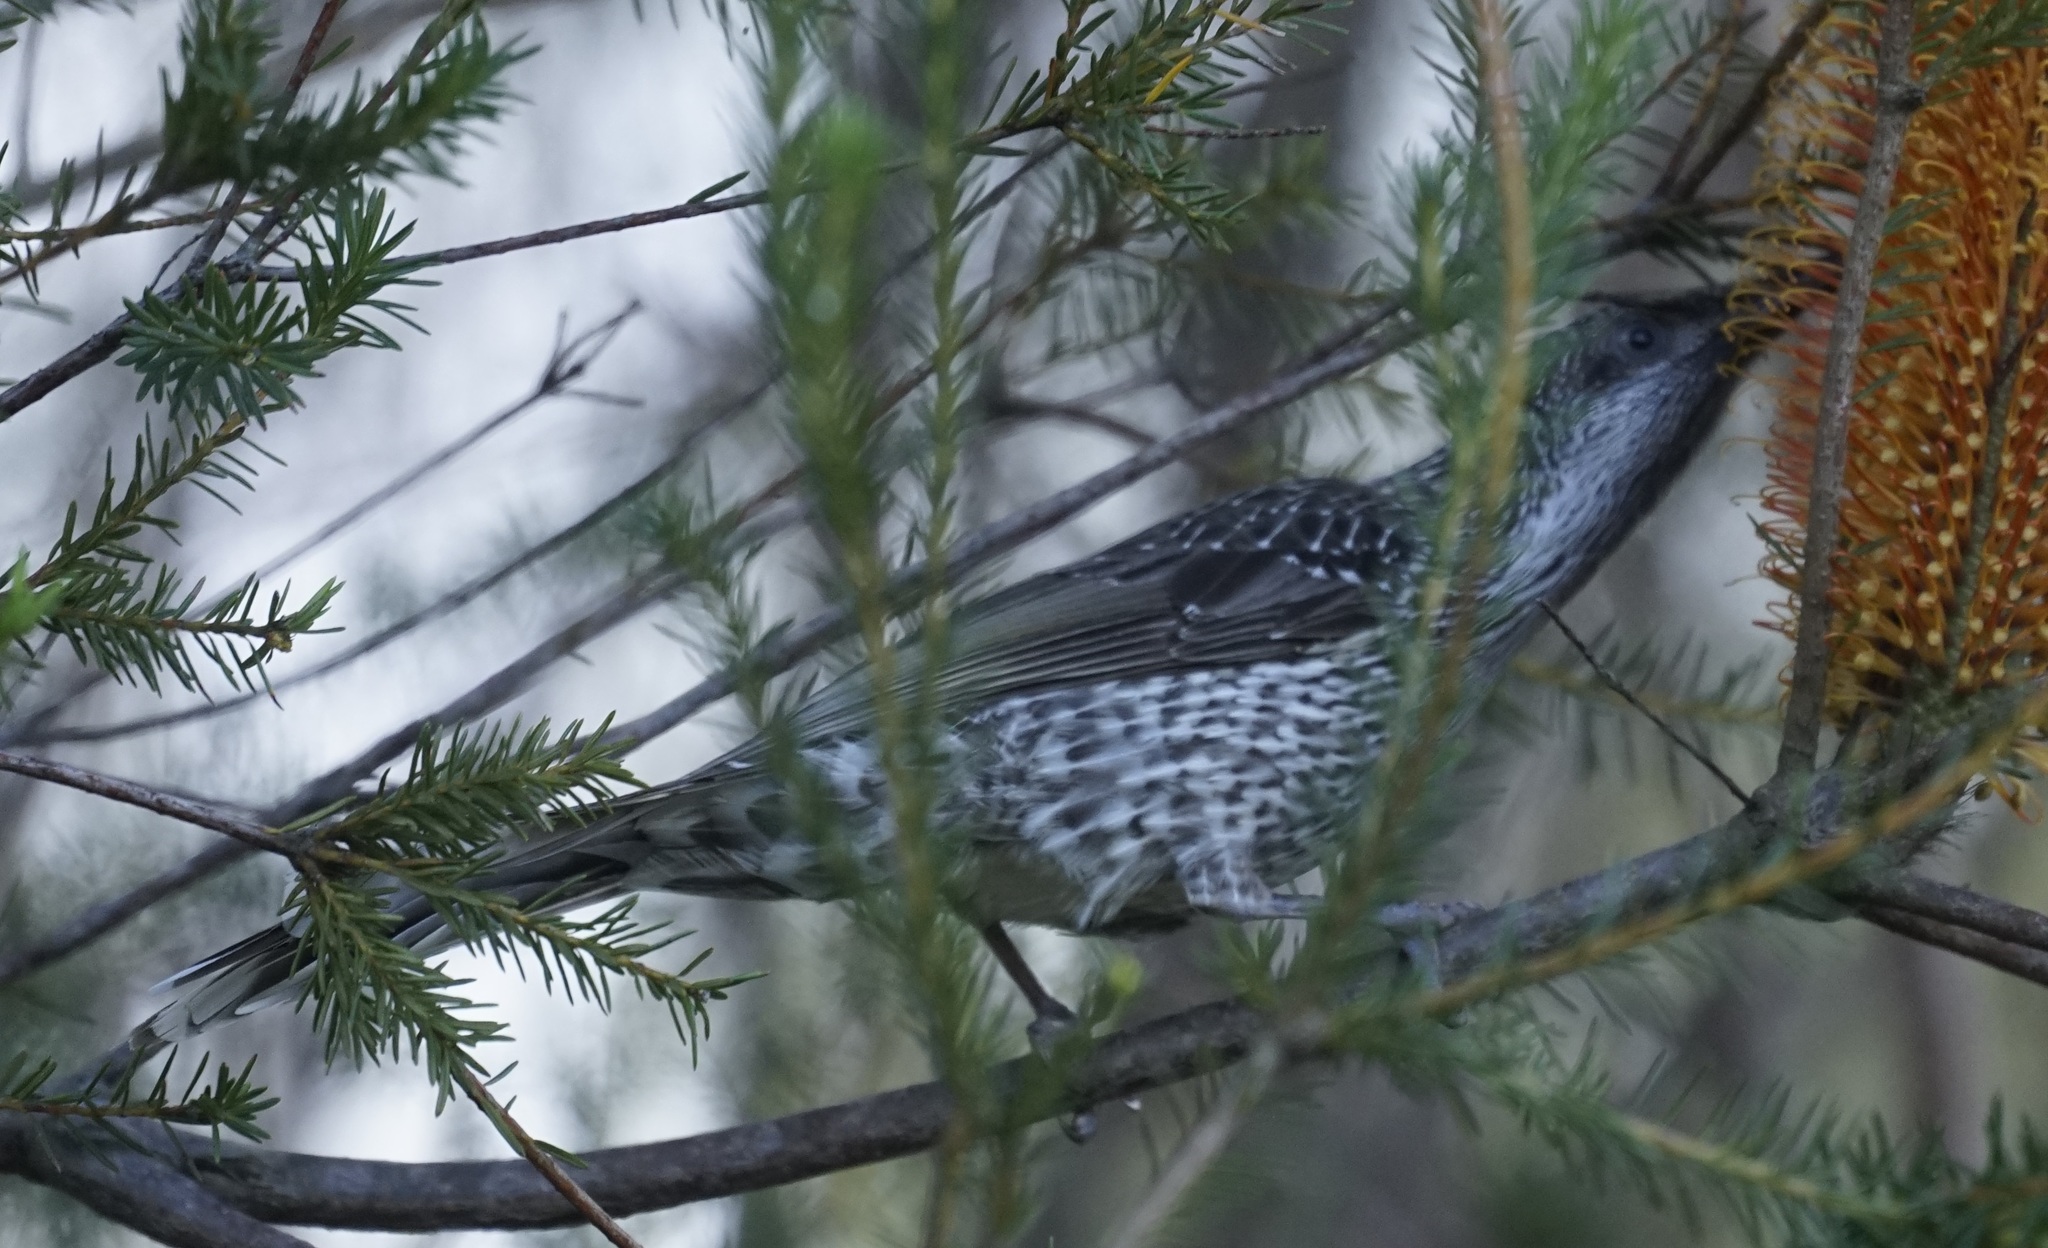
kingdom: Animalia
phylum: Chordata
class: Aves
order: Passeriformes
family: Meliphagidae
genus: Anthochaera
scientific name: Anthochaera chrysoptera
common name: Little wattlebird
